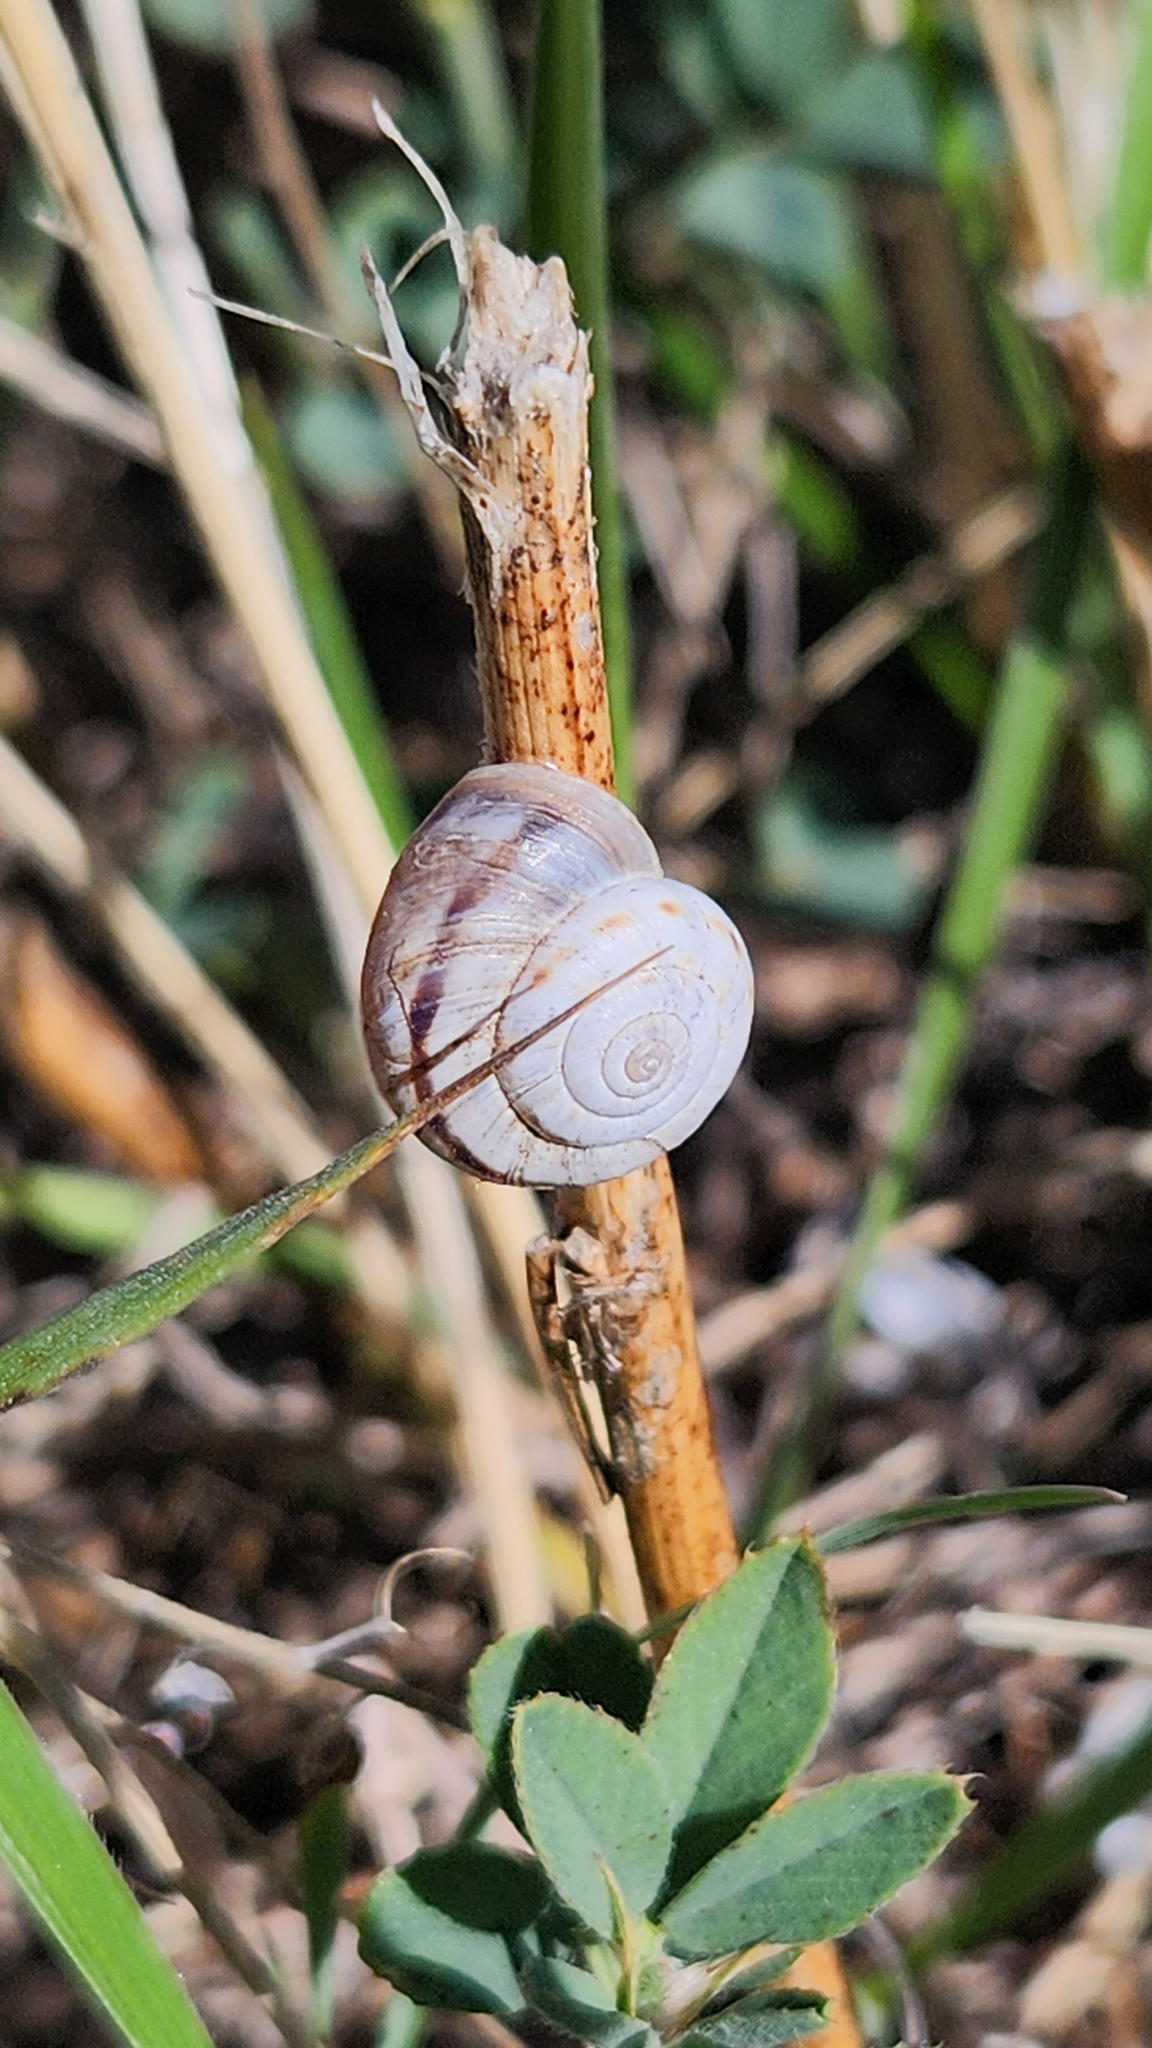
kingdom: Animalia
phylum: Mollusca
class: Gastropoda
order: Stylommatophora
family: Geomitridae
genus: Xerolenta
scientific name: Xerolenta obvia
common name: White heath snail
